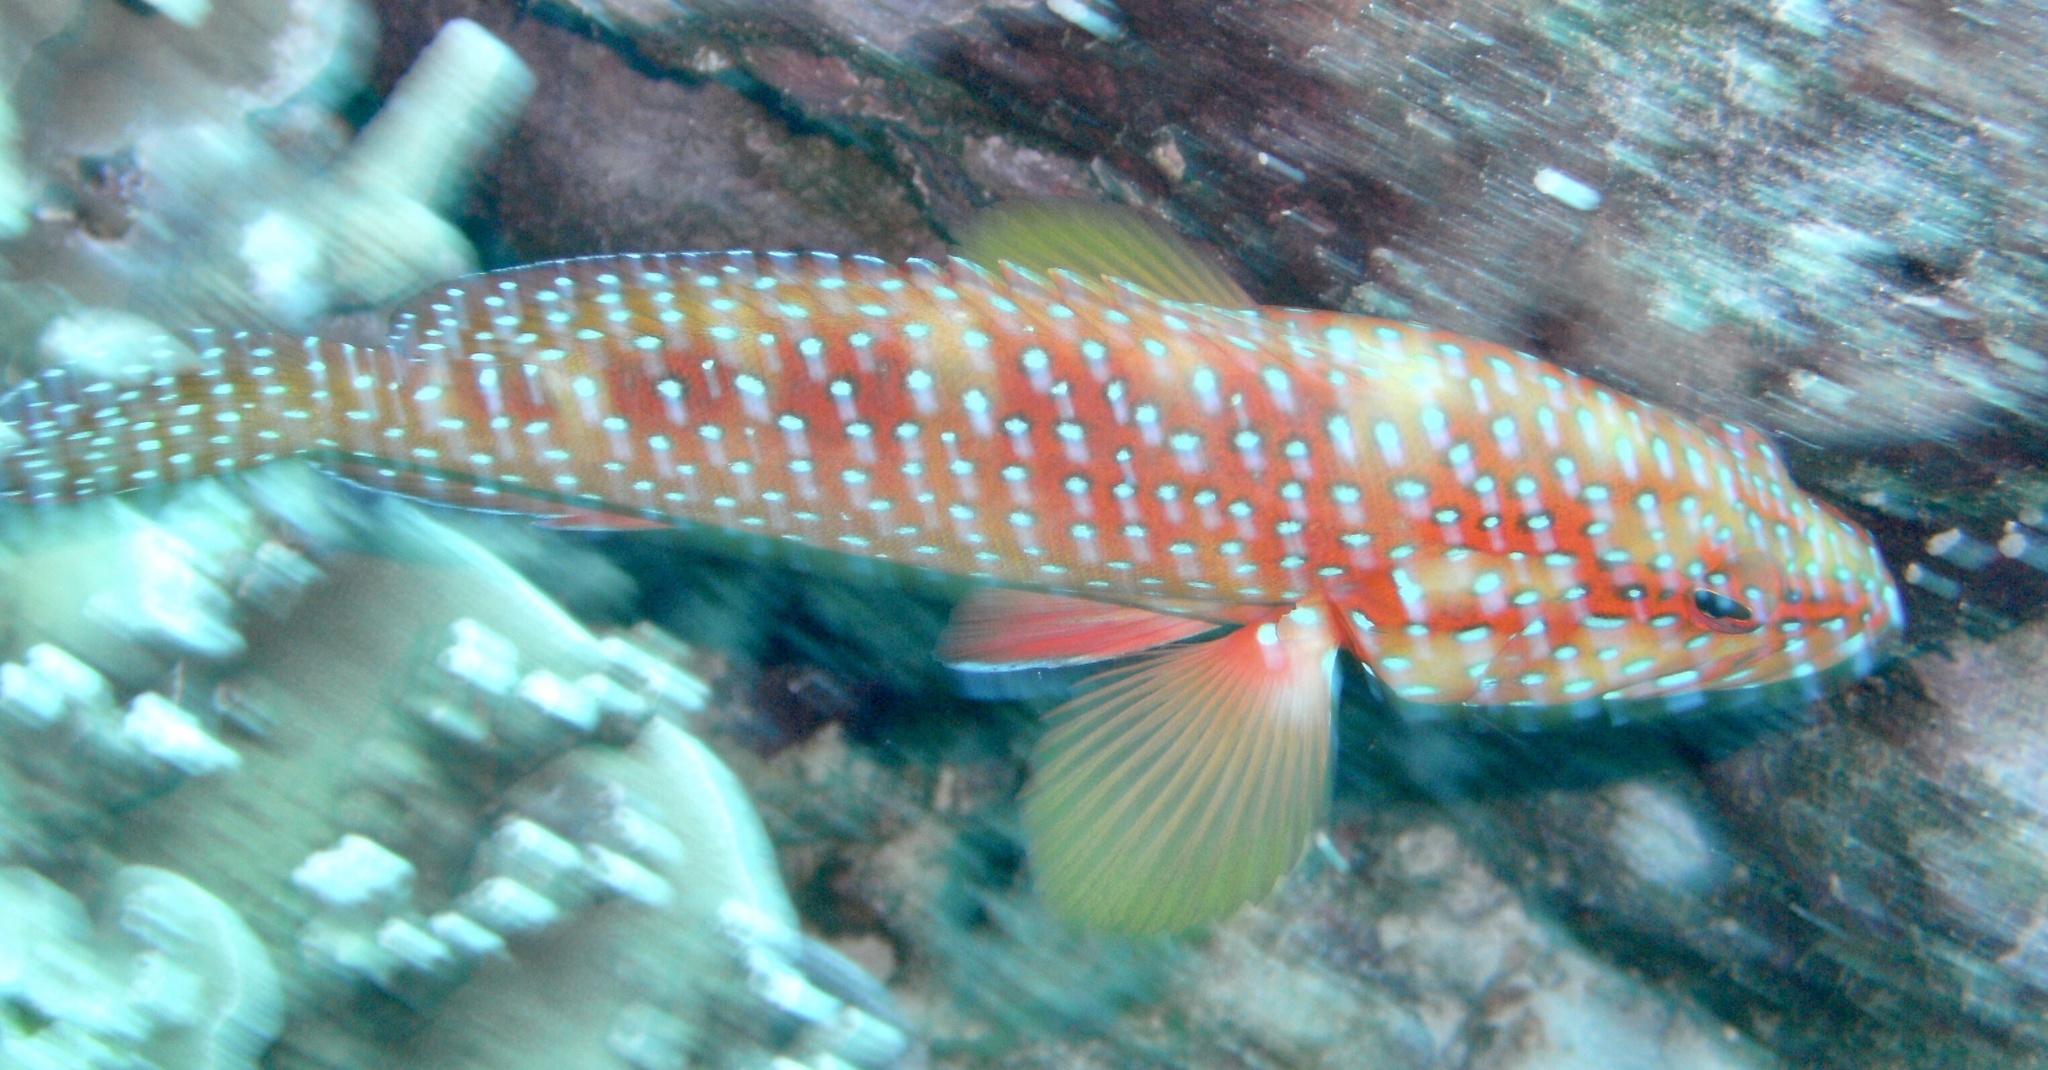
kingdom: Animalia
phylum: Chordata
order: Perciformes
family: Serranidae
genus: Cephalopholis
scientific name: Cephalopholis miniata
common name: Coral hind
